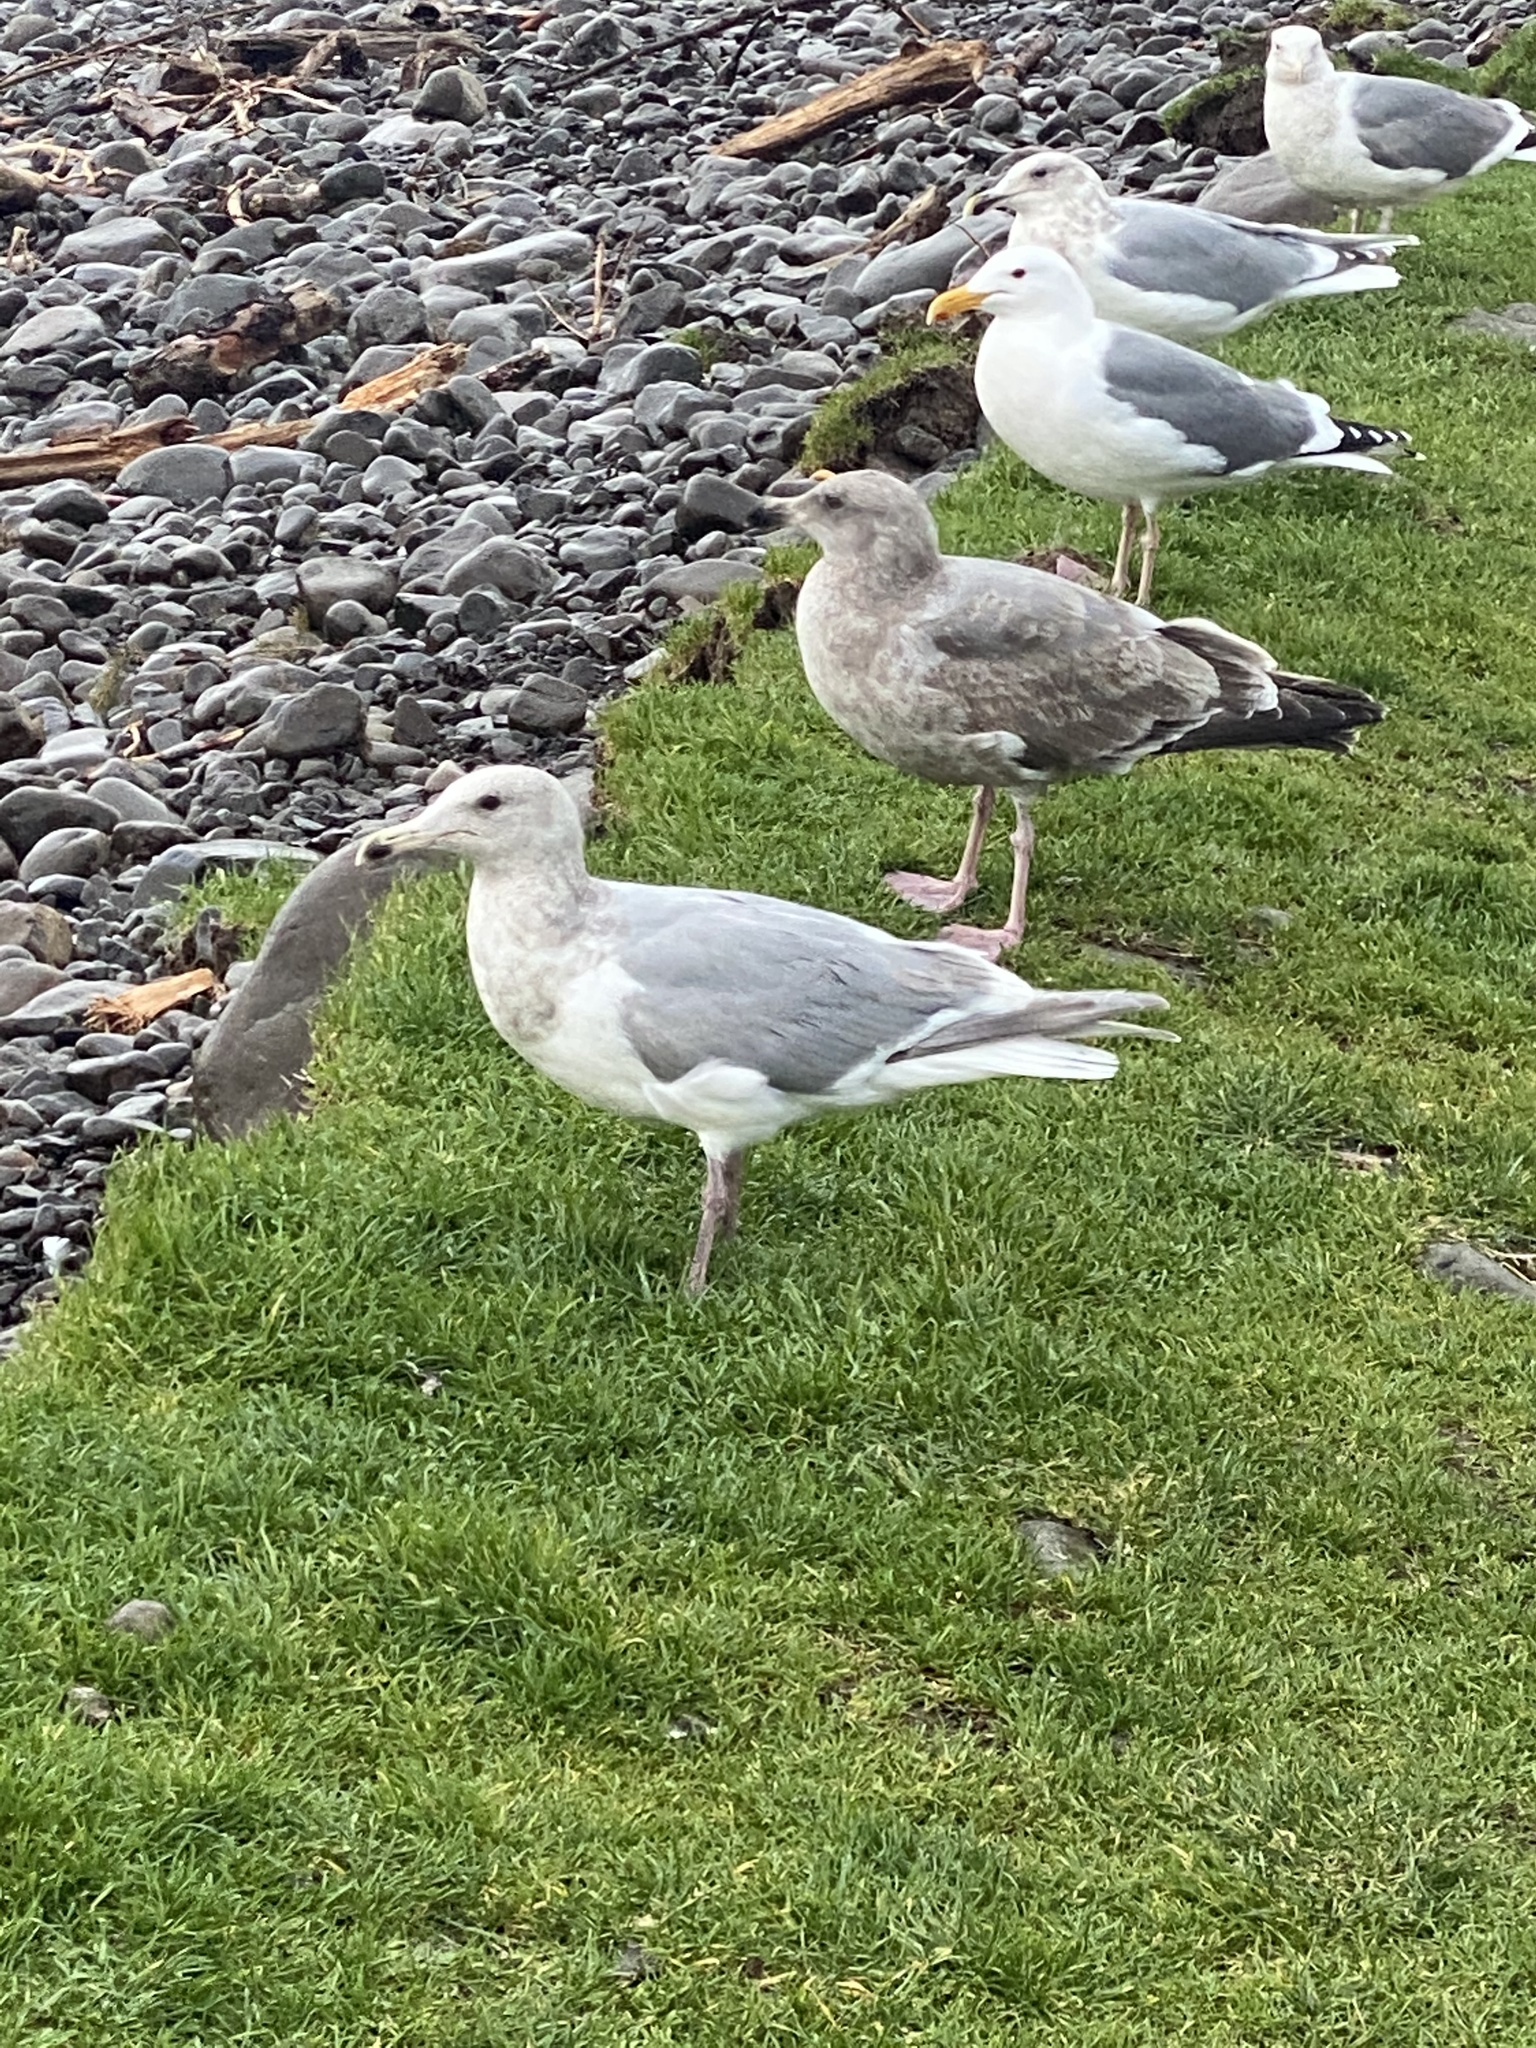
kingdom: Animalia
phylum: Chordata
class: Aves
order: Charadriiformes
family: Laridae
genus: Larus
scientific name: Larus glaucescens
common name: Glaucous-winged gull
